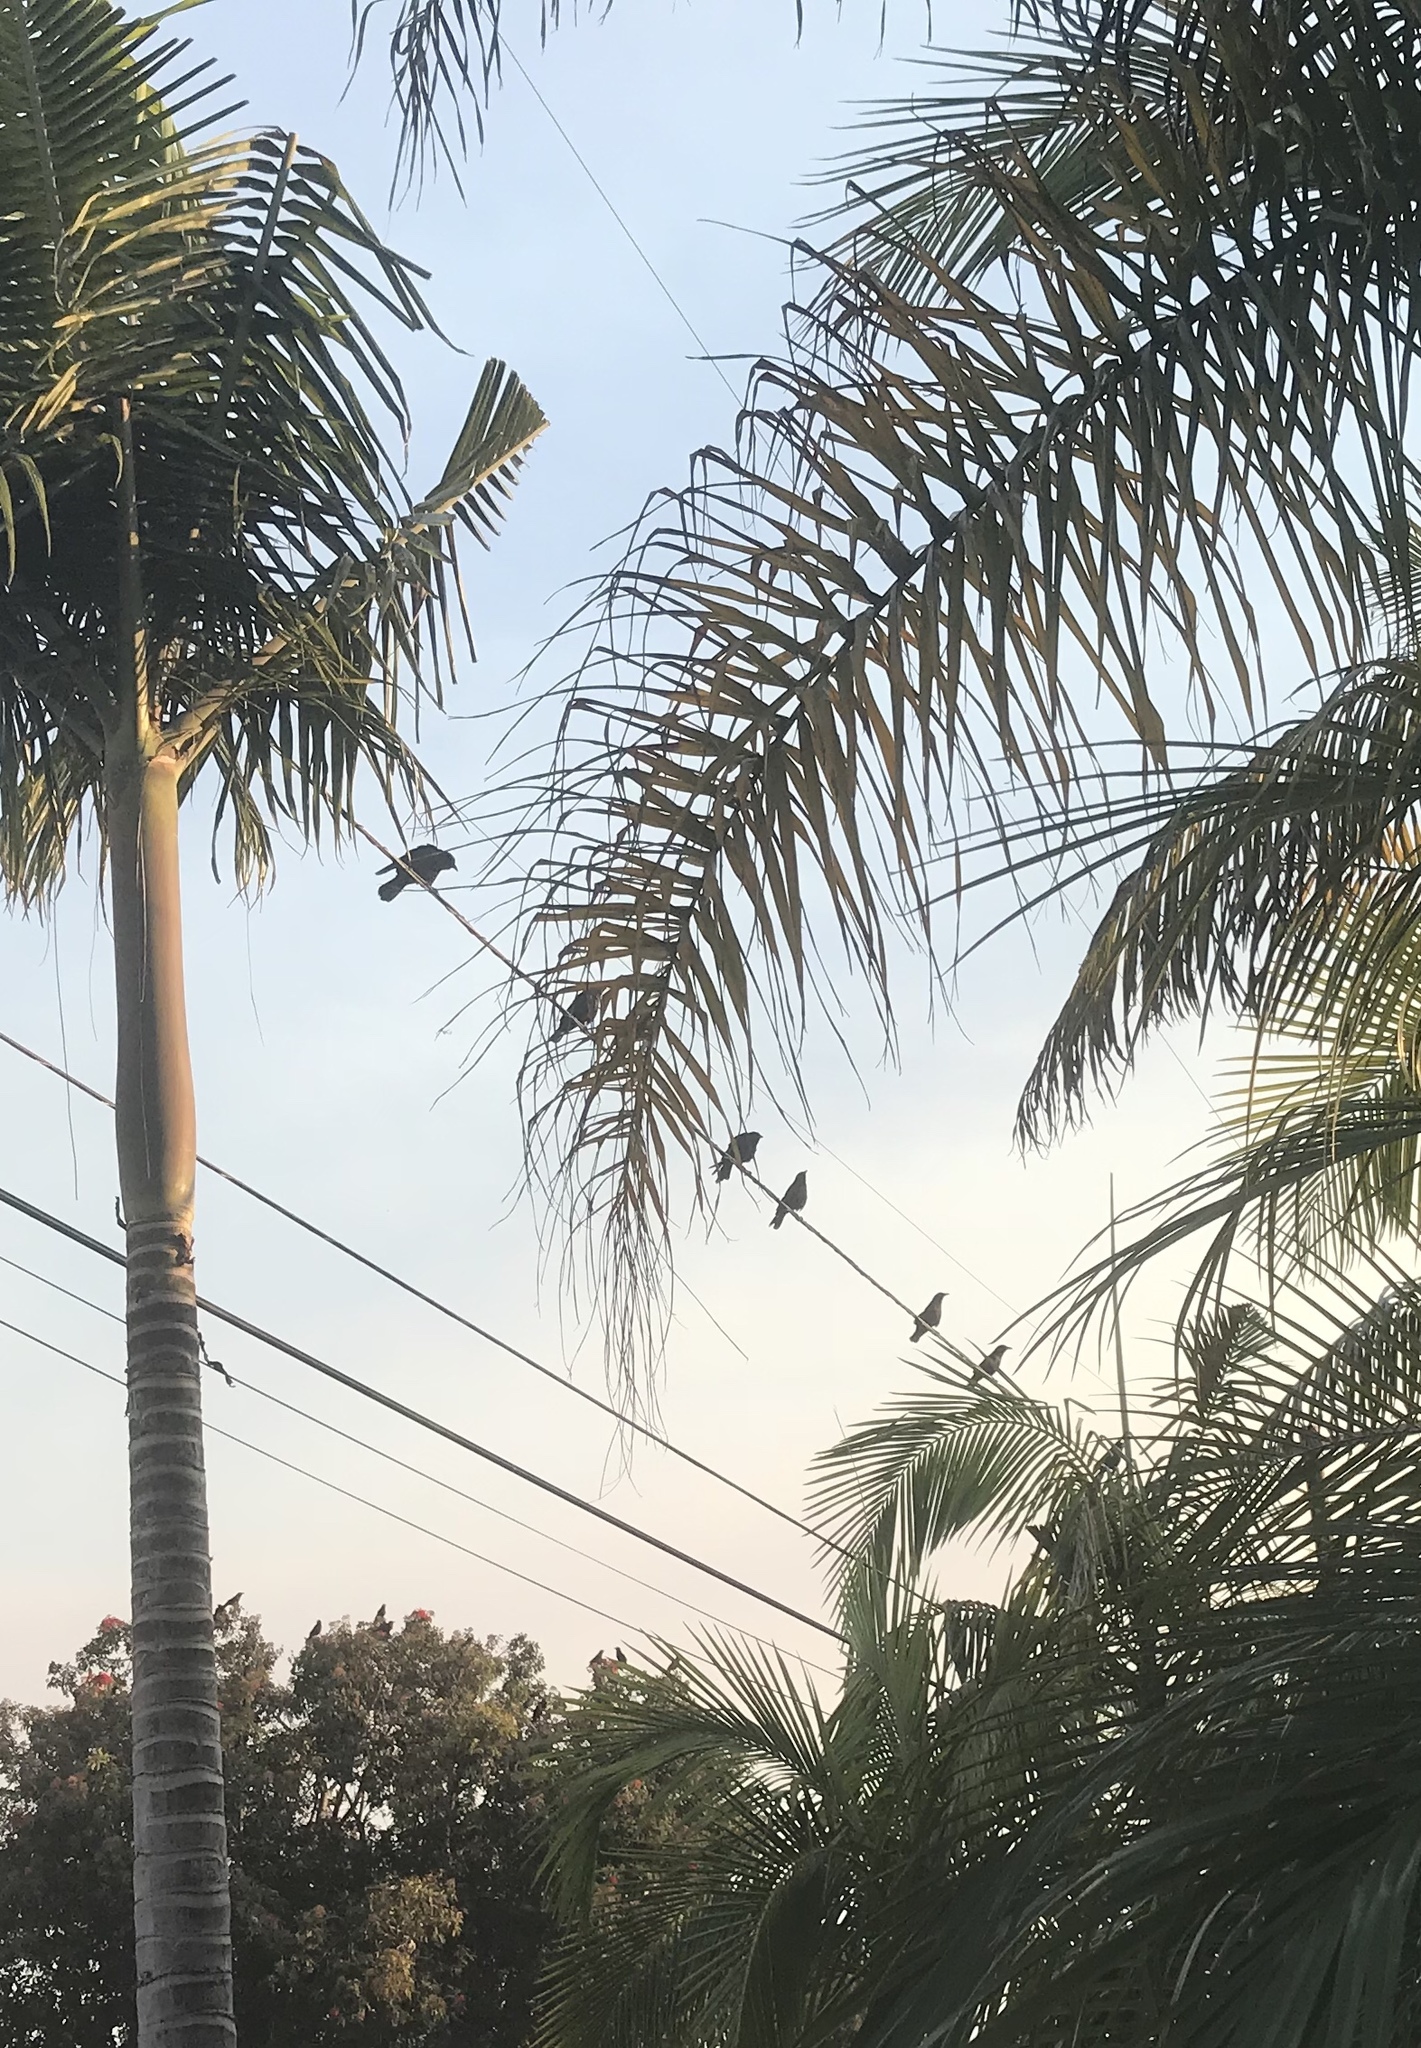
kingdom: Animalia
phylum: Chordata
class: Aves
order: Passeriformes
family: Corvidae
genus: Corvus
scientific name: Corvus brachyrhynchos
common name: American crow
